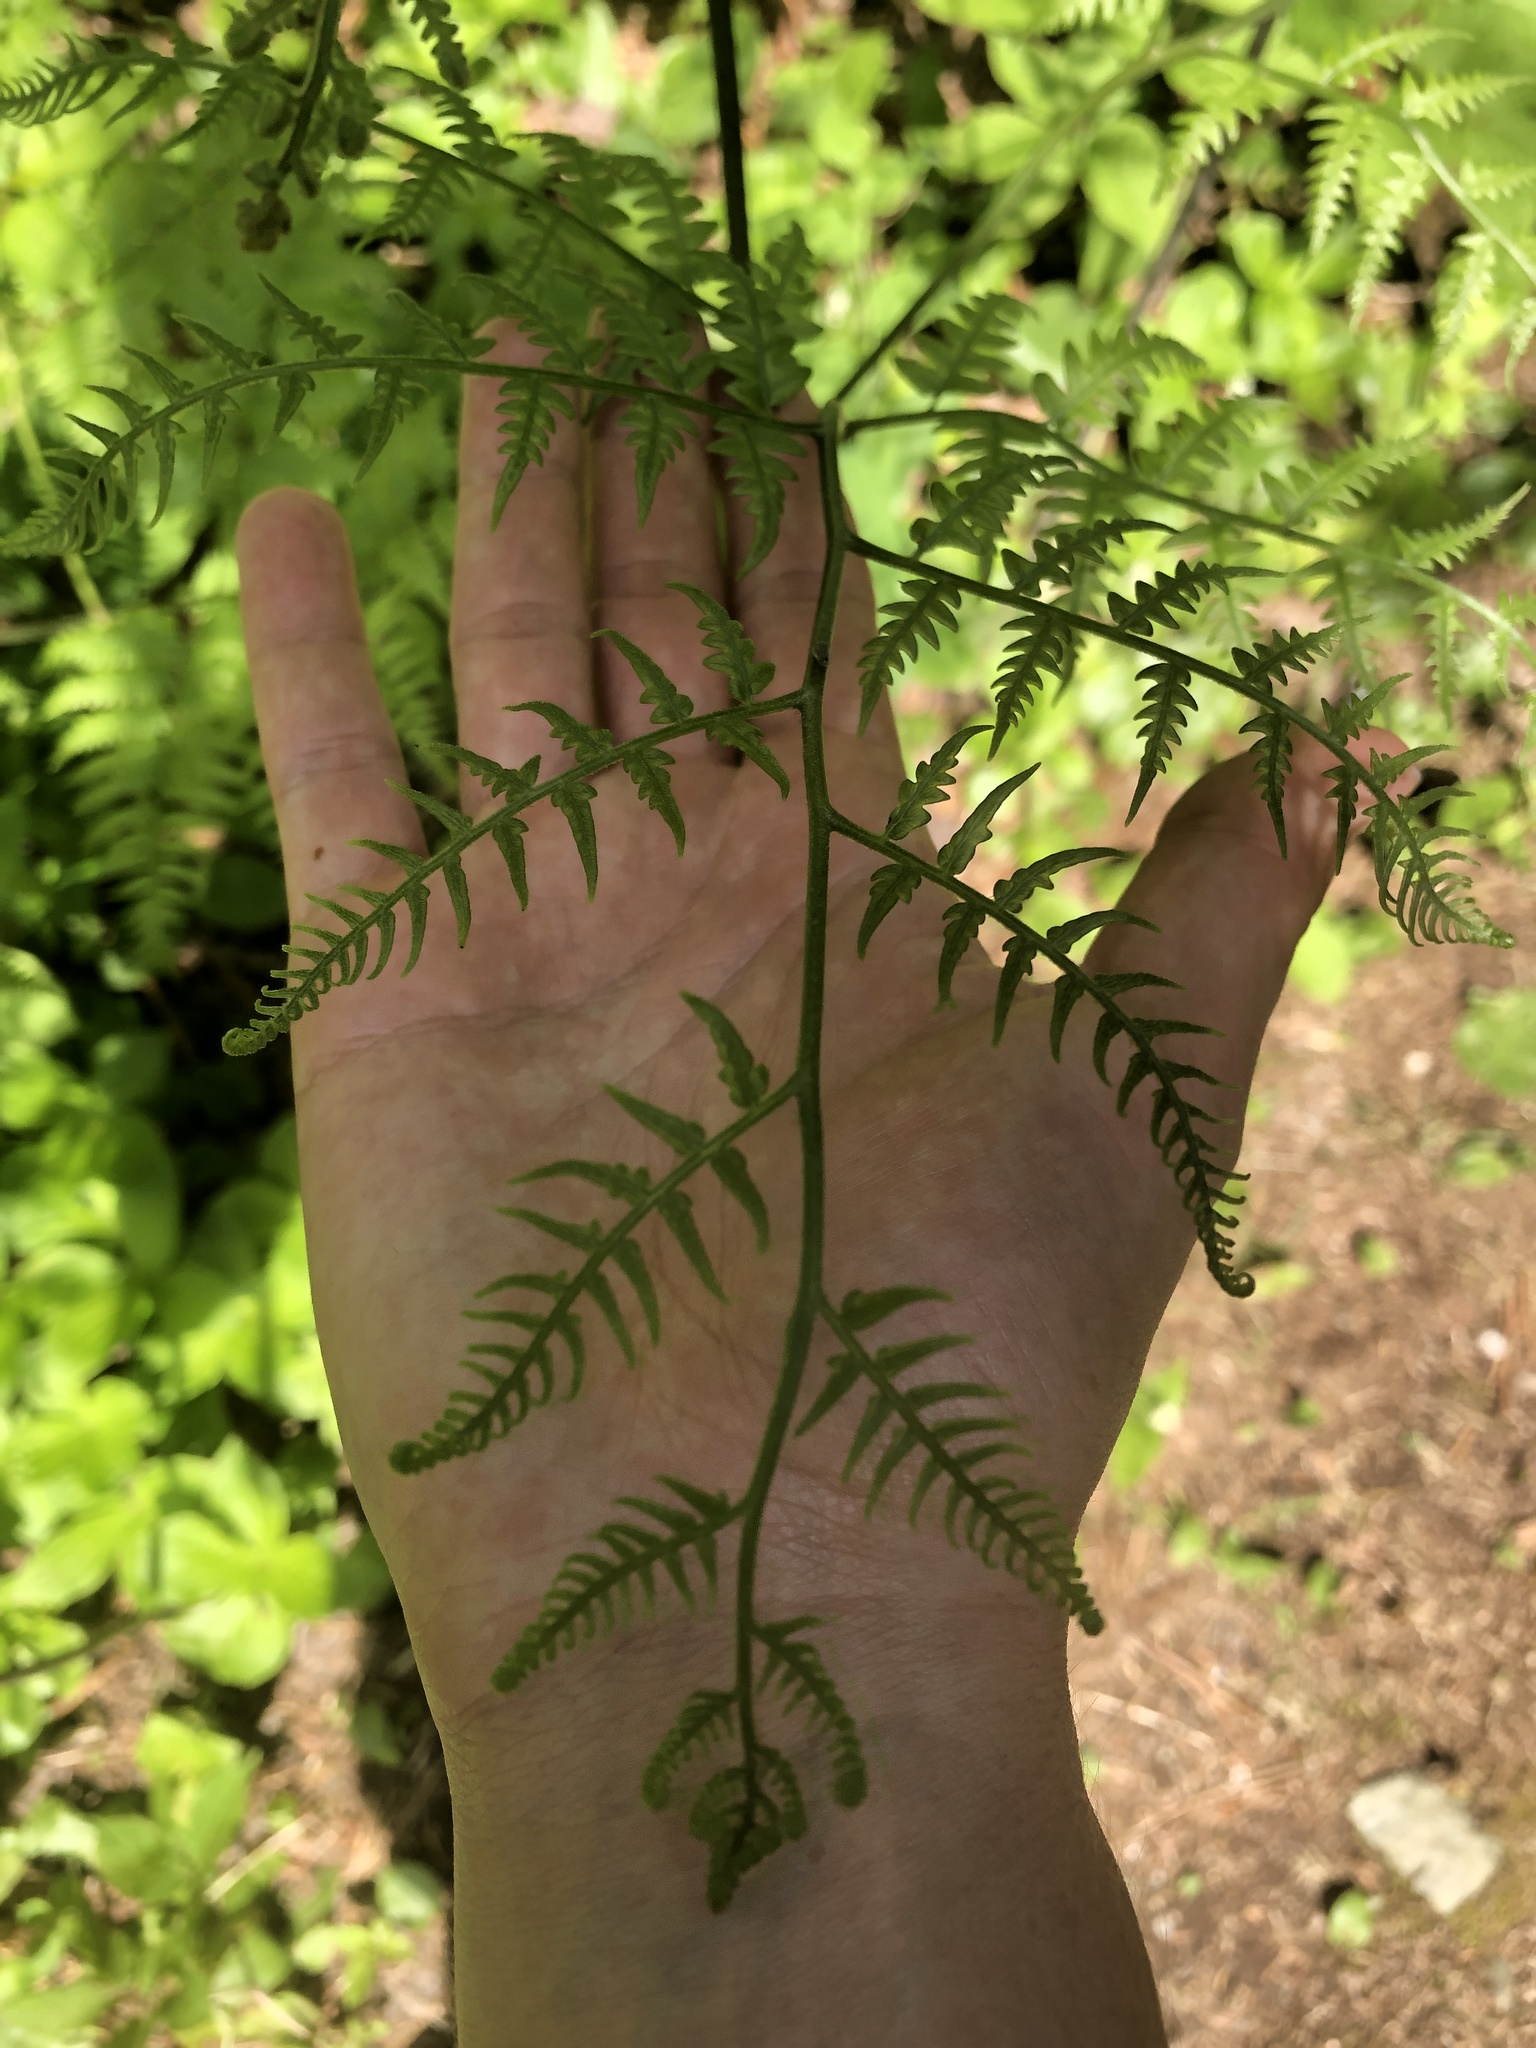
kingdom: Plantae
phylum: Tracheophyta
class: Polypodiopsida
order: Polypodiales
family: Dennstaedtiaceae
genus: Pteridium
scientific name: Pteridium aquilinum
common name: Bracken
